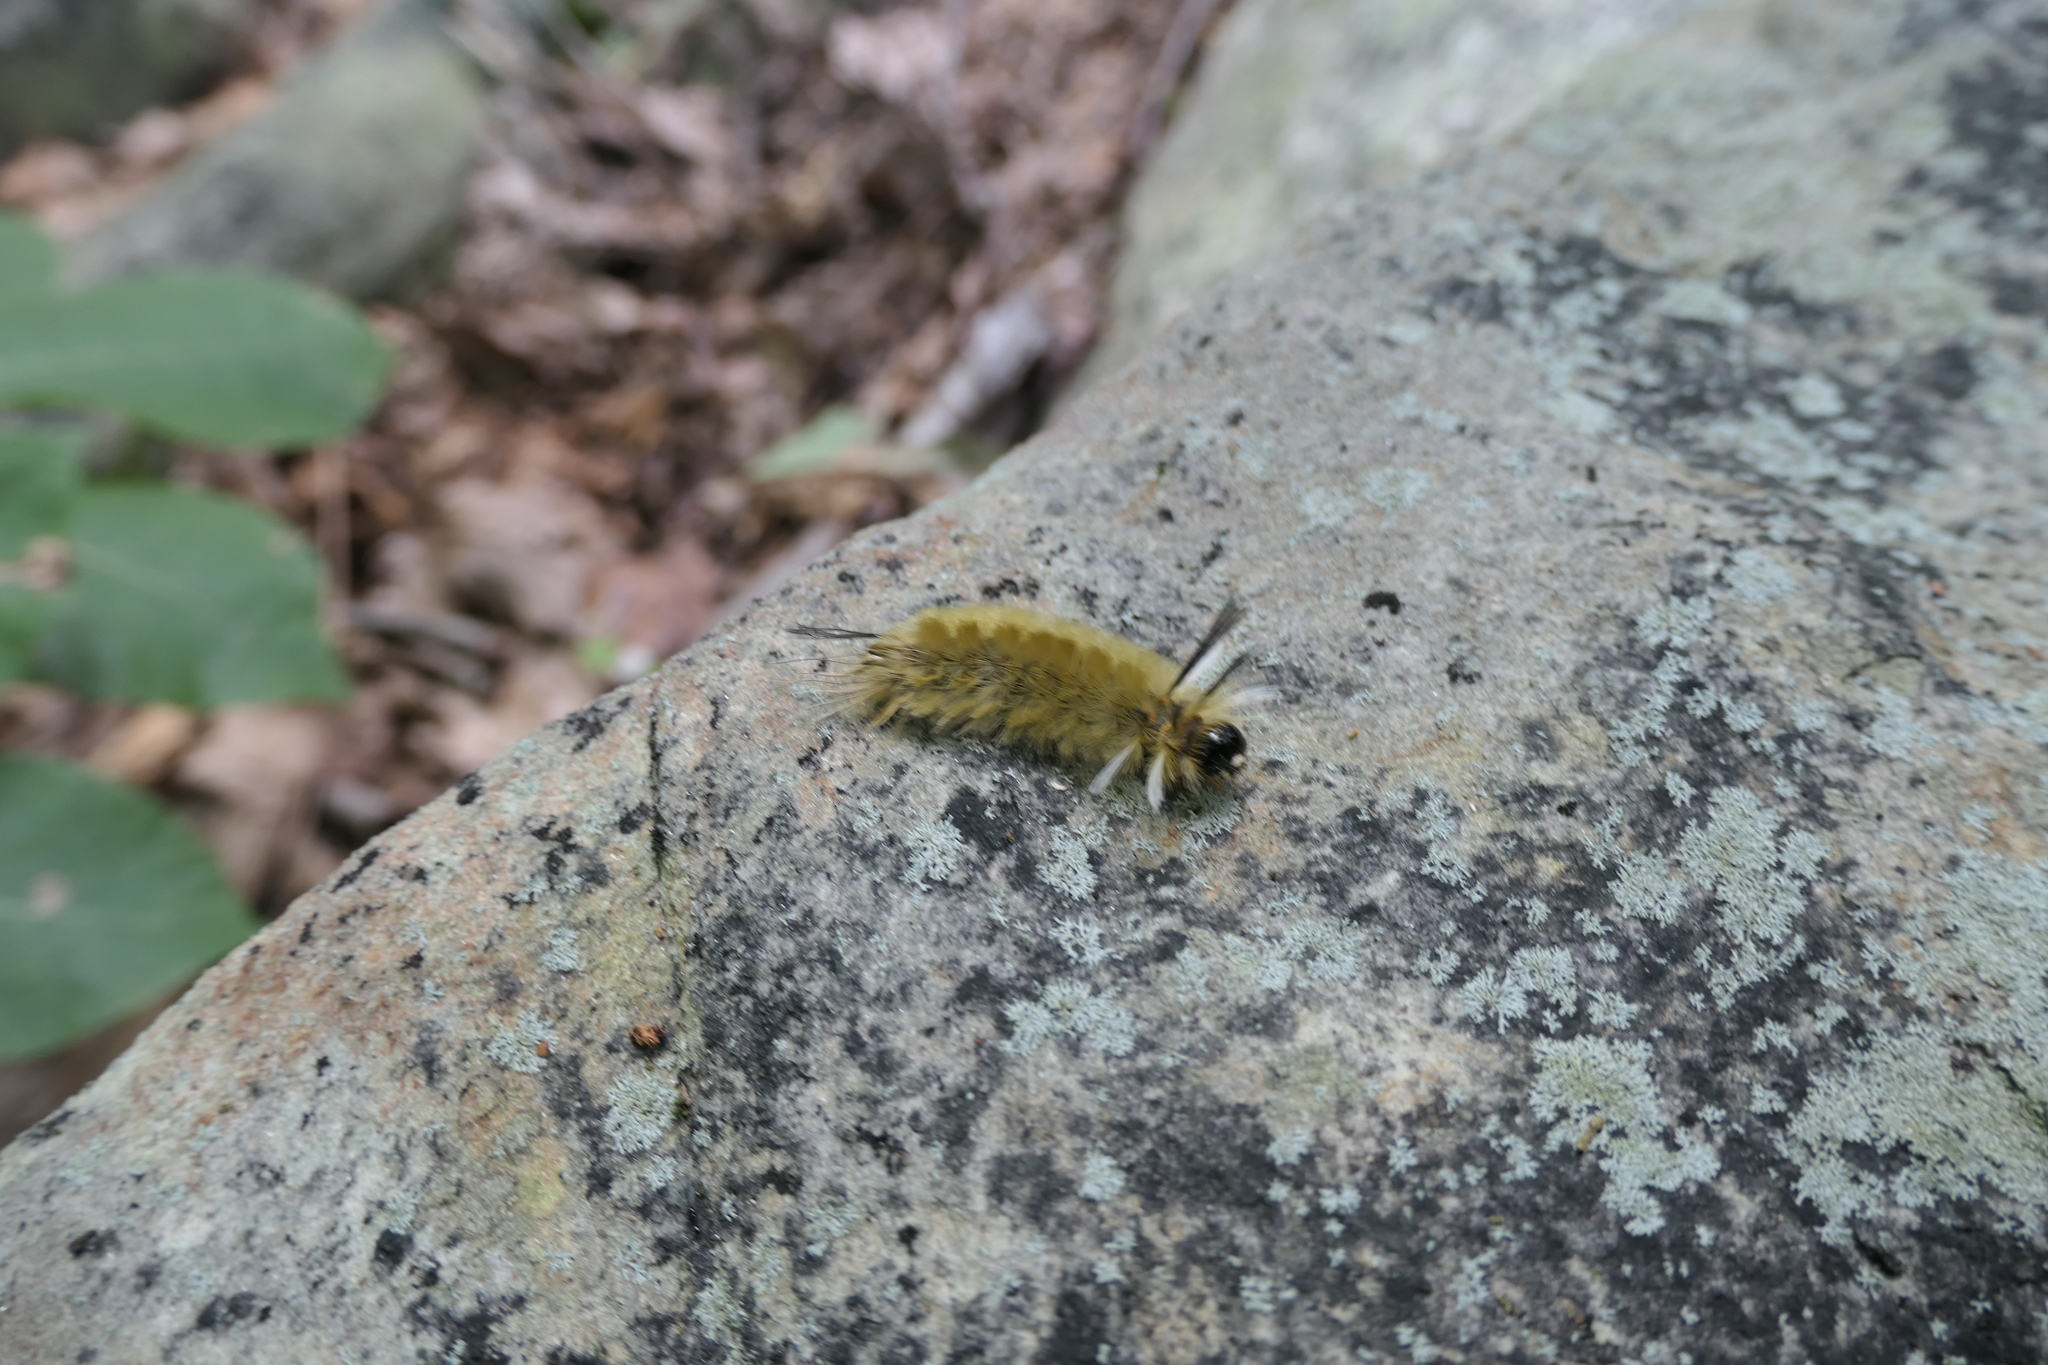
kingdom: Animalia
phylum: Arthropoda
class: Insecta
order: Lepidoptera
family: Erebidae
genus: Halysidota
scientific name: Halysidota tessellaris
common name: Banded tussock moth
